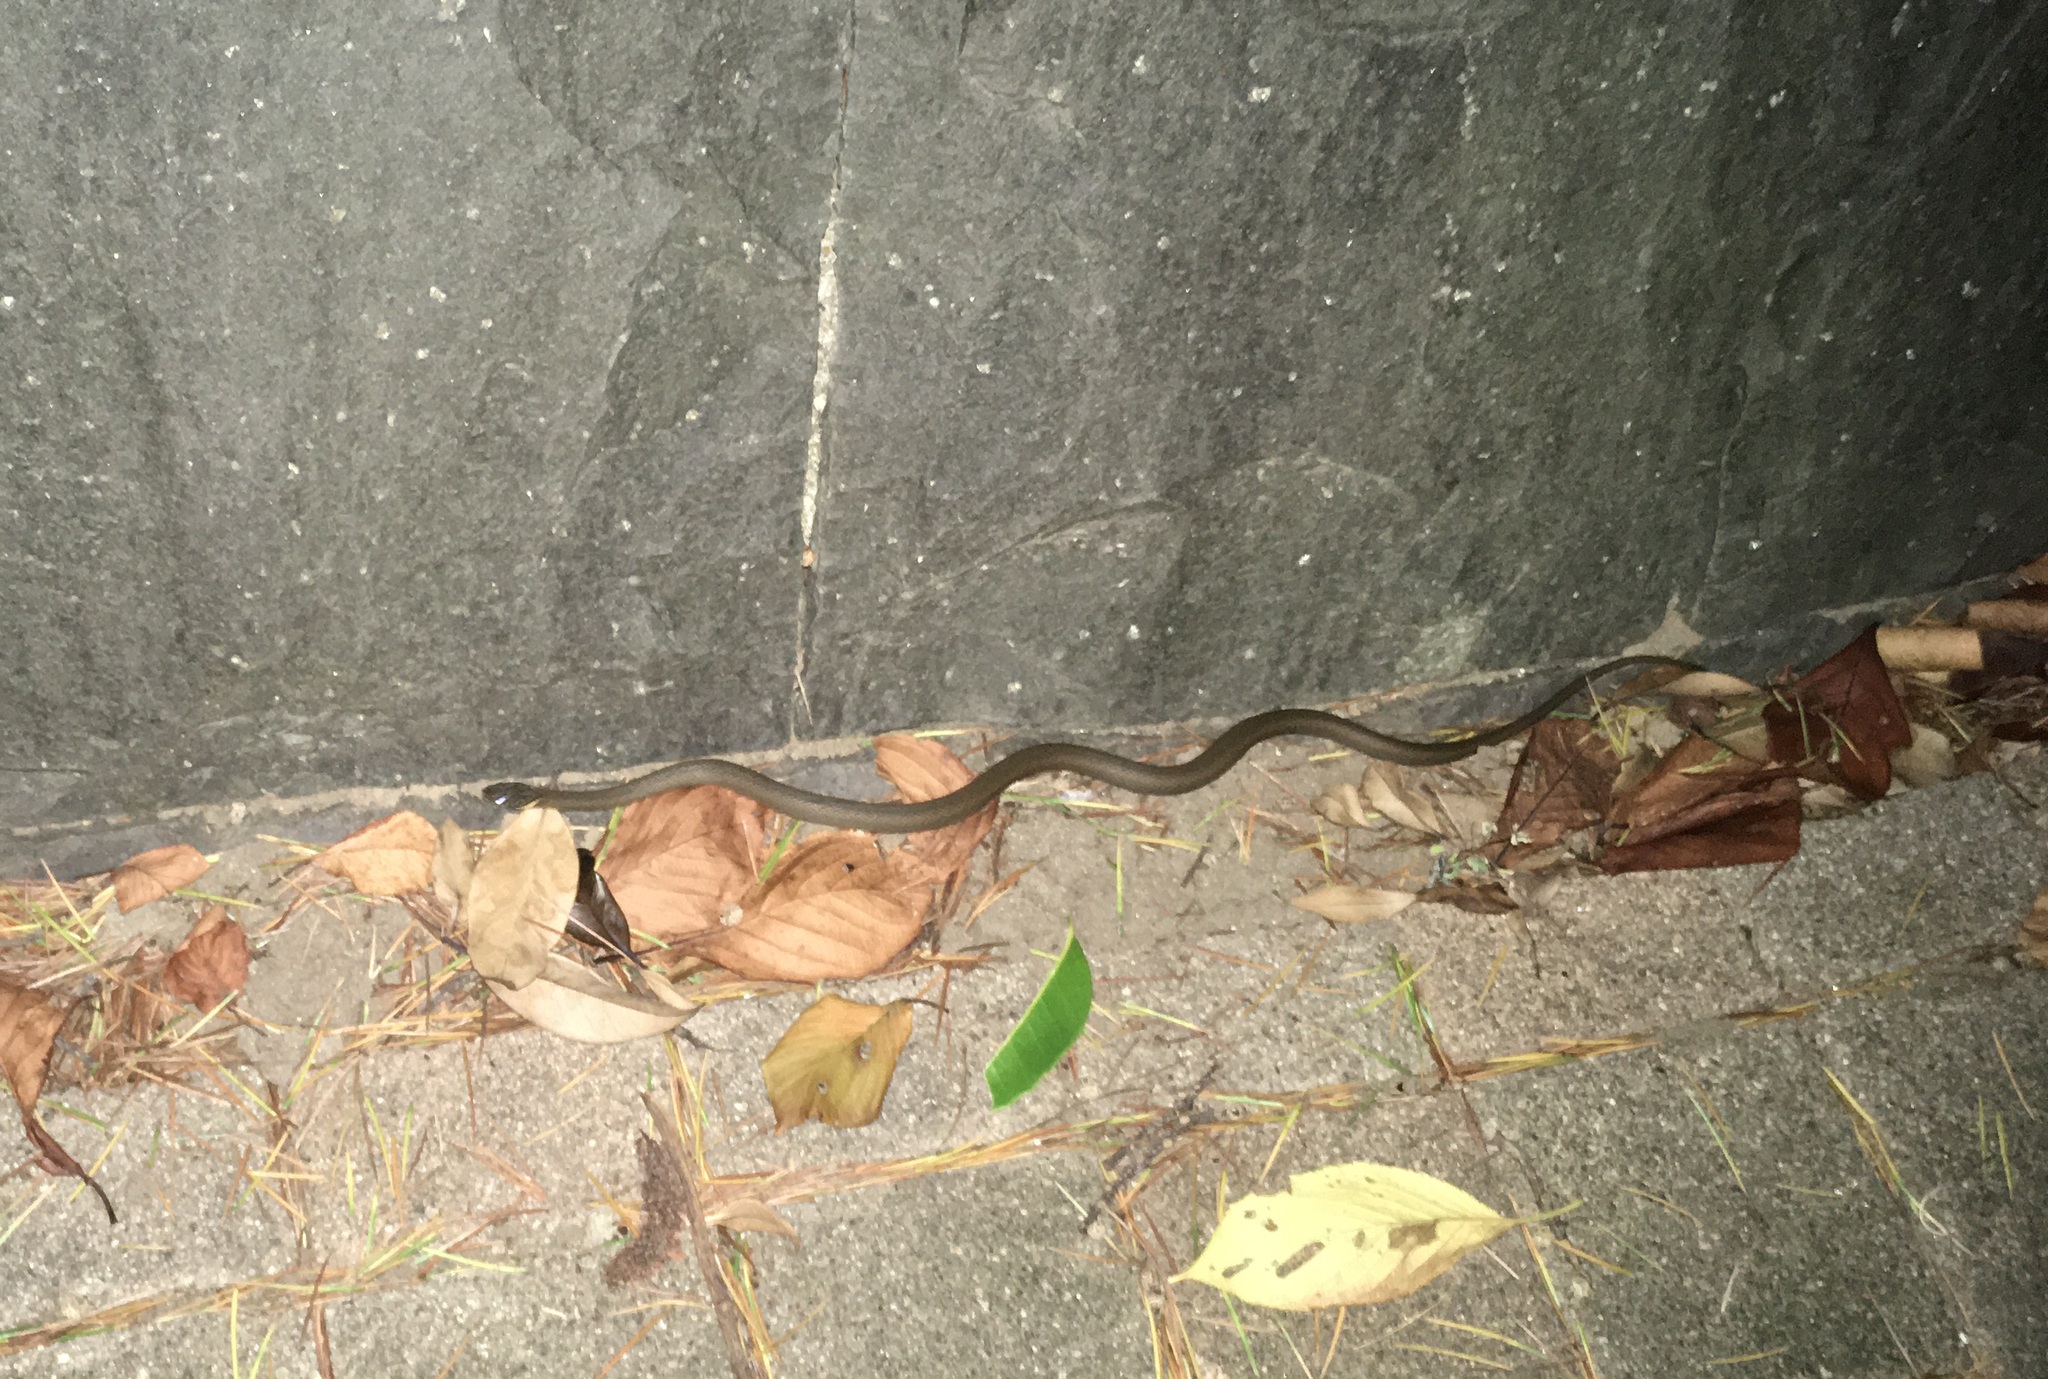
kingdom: Animalia
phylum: Chordata
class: Squamata
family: Colubridae
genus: Hebius
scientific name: Hebius vibakari
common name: Japanese keelback
